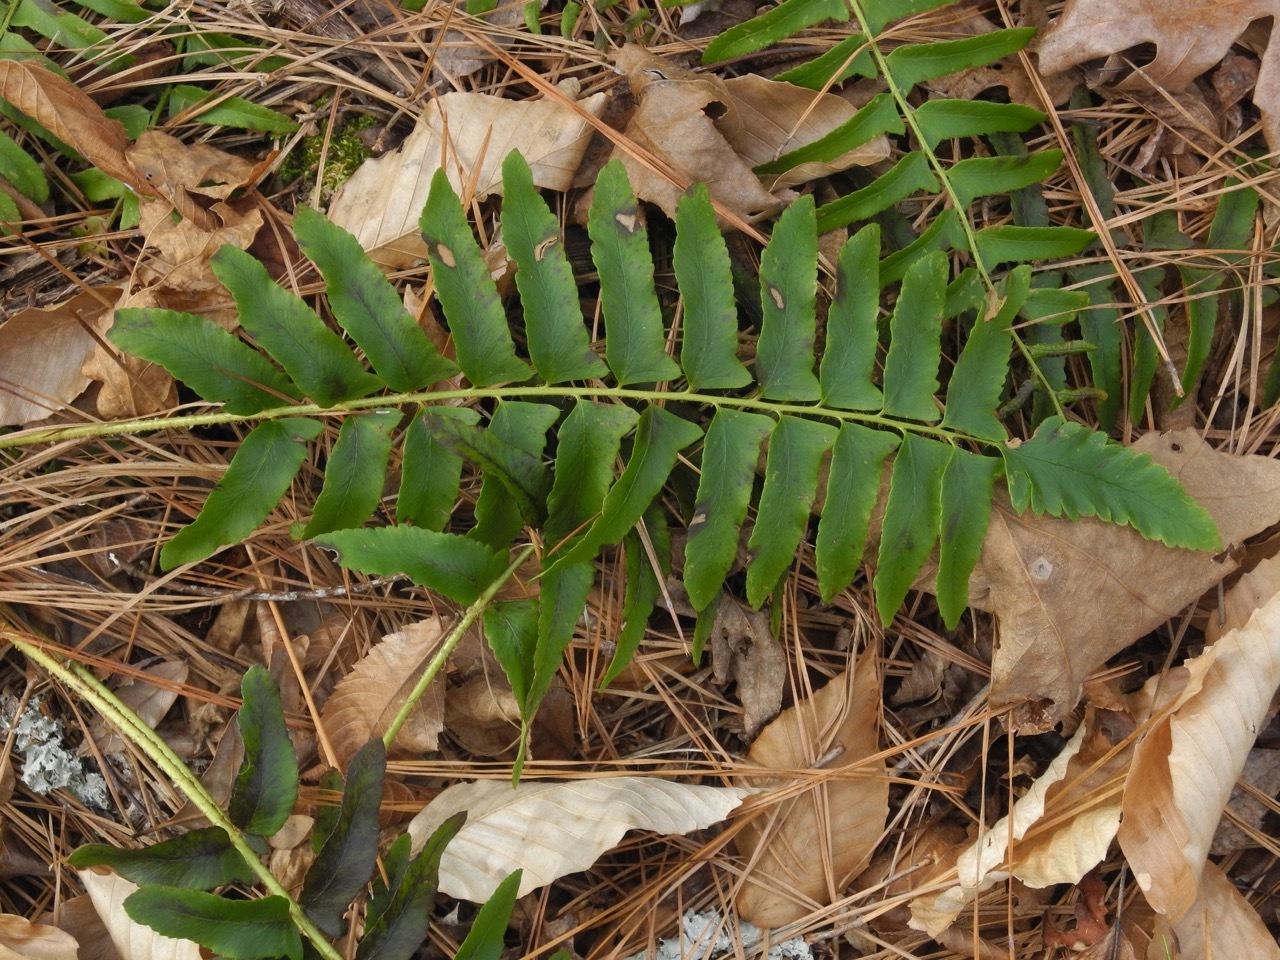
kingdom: Plantae
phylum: Tracheophyta
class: Polypodiopsida
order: Polypodiales
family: Dryopteridaceae
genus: Polystichum
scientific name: Polystichum acrostichoides
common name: Christmas fern
